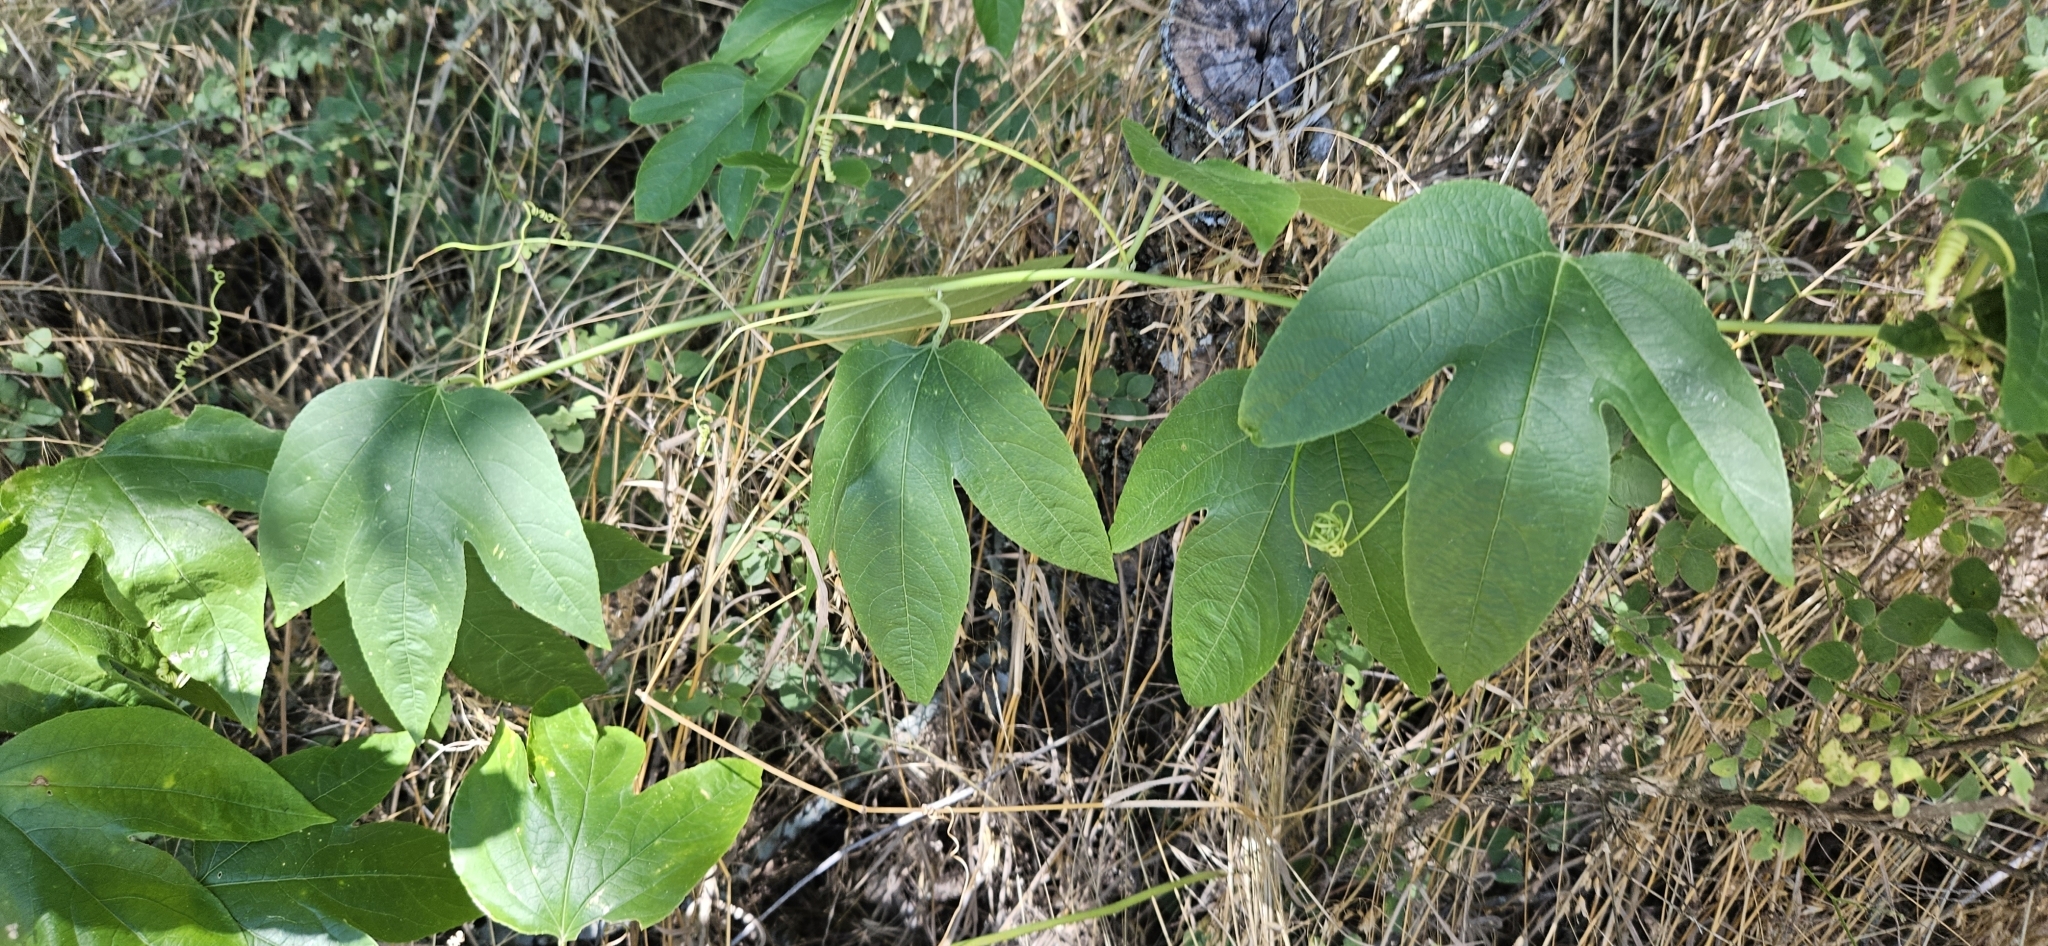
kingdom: Plantae
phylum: Tracheophyta
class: Magnoliopsida
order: Malpighiales
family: Passifloraceae
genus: Passiflora
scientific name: Passiflora incarnata
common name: Apricot-vine
